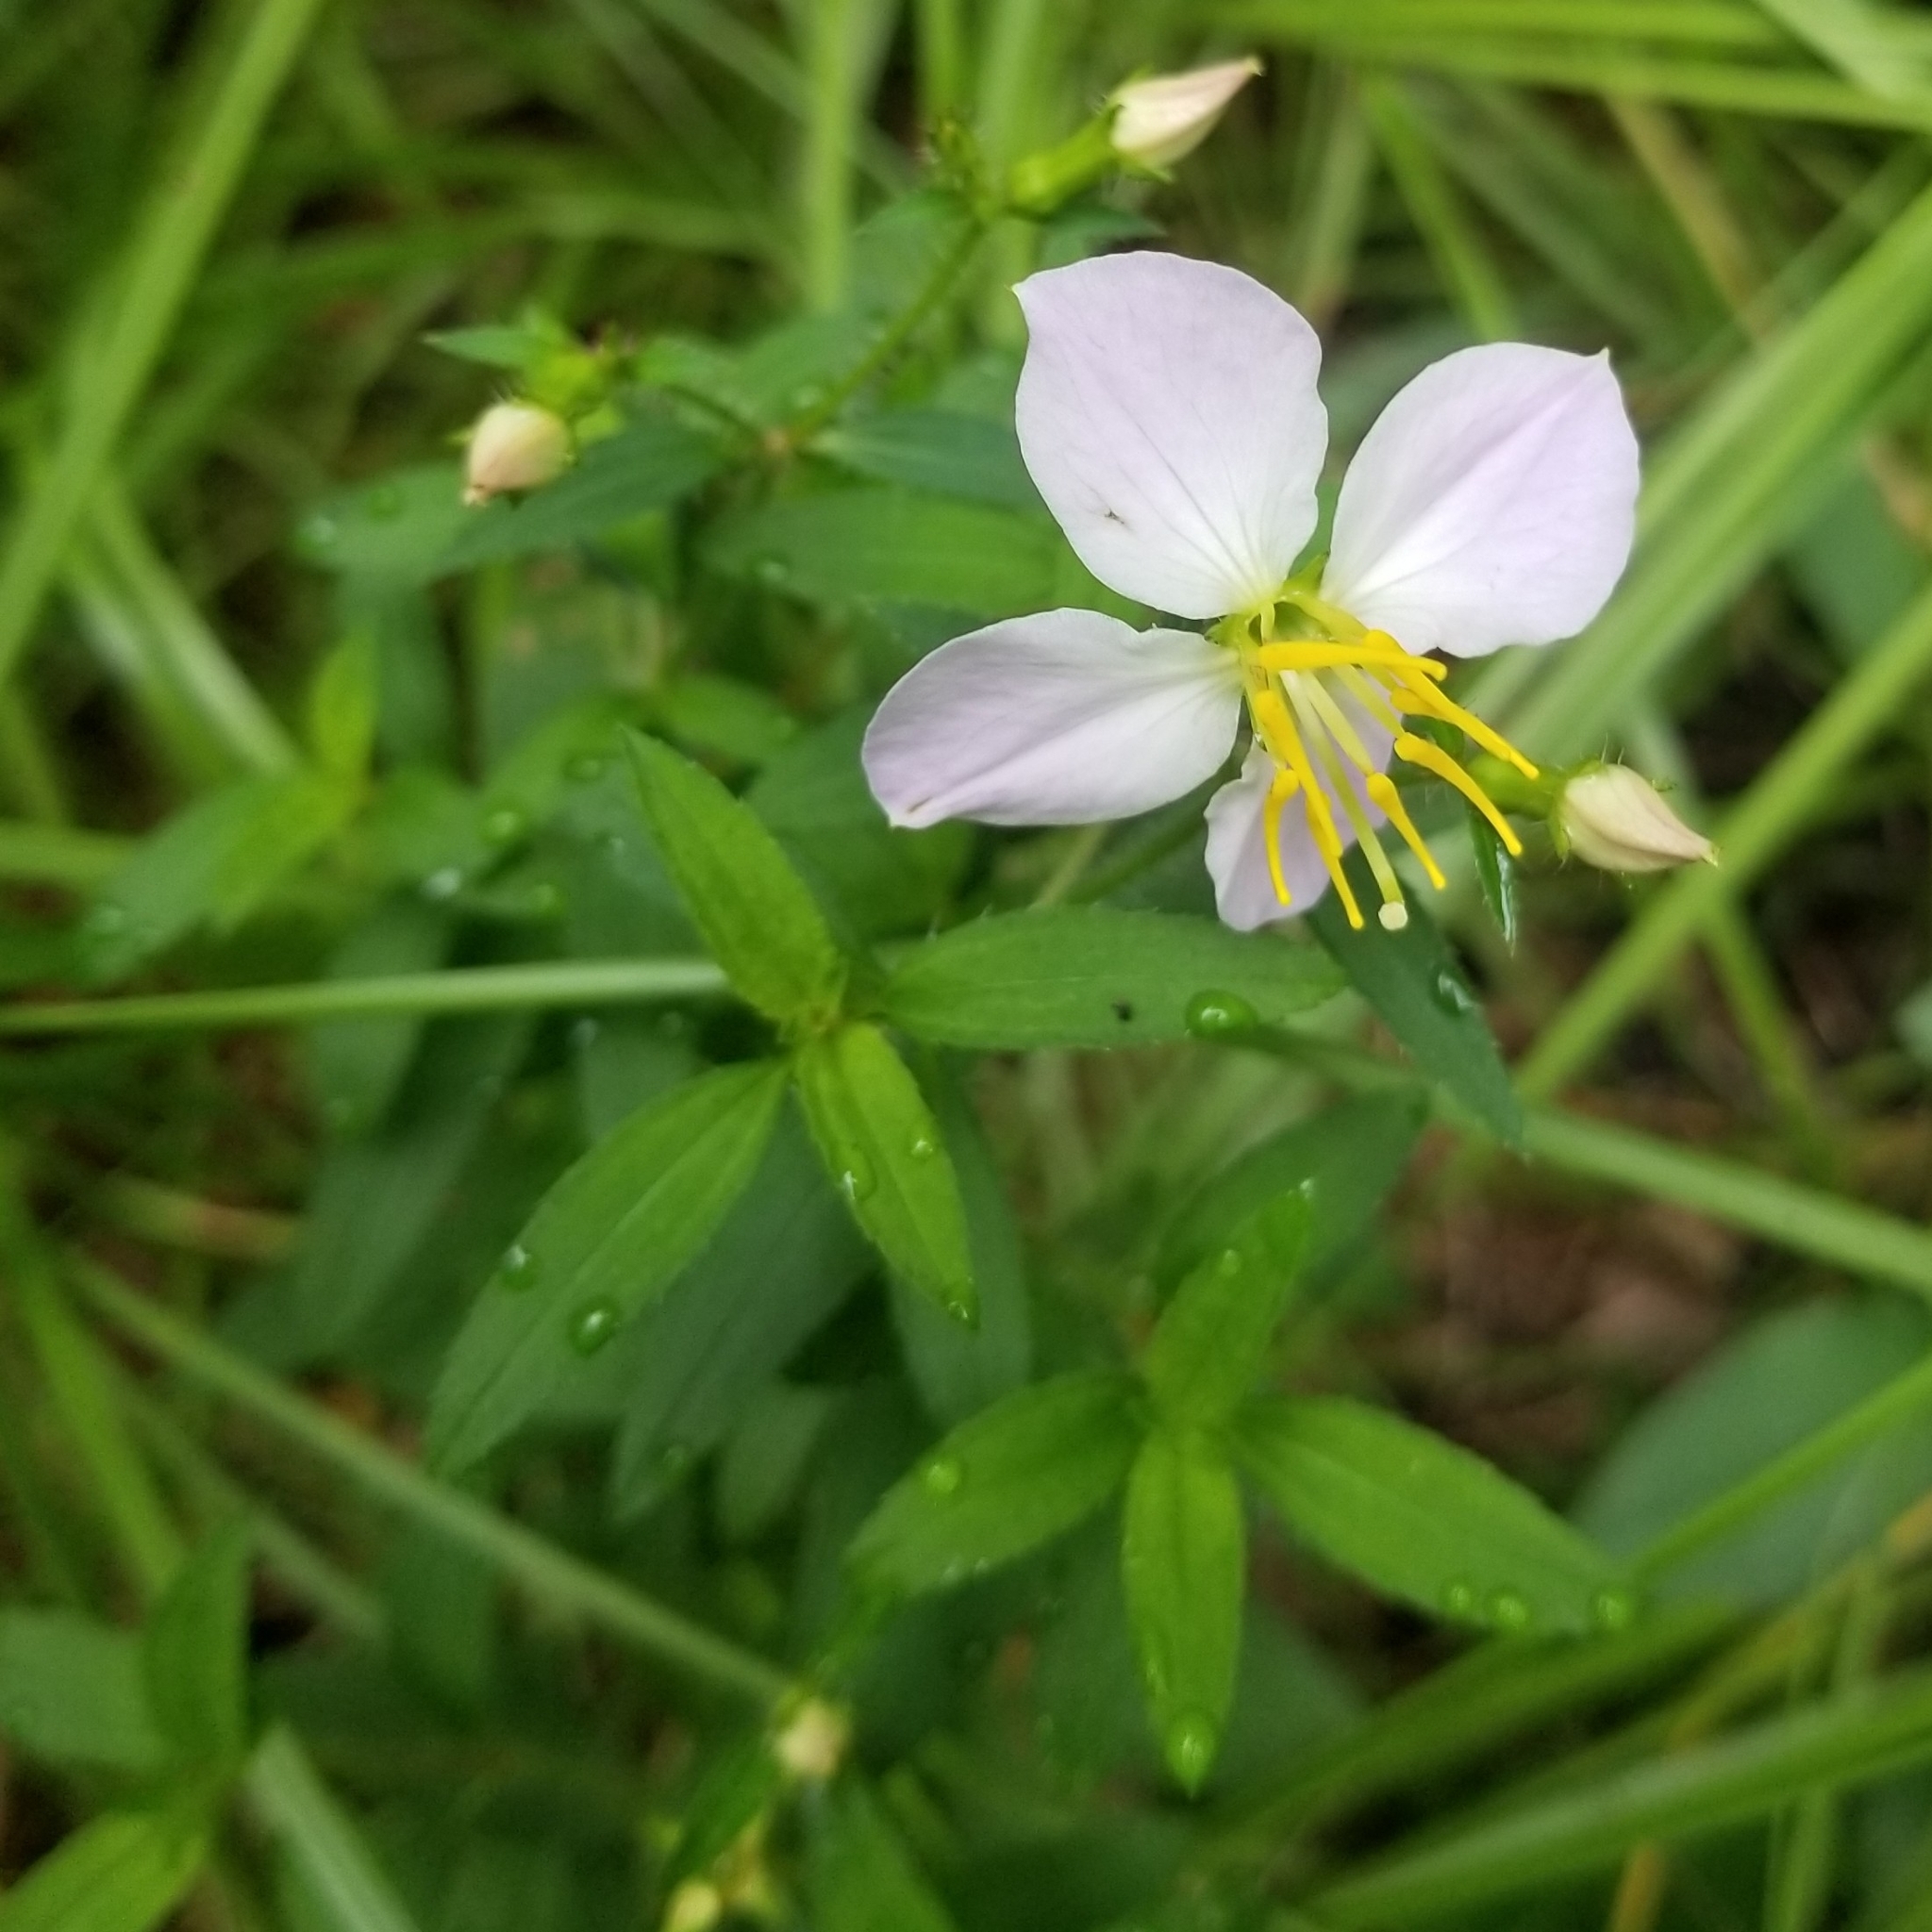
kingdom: Plantae
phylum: Tracheophyta
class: Magnoliopsida
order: Myrtales
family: Melastomataceae
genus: Rhexia
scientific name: Rhexia mariana
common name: Dull meadow-pitcher
